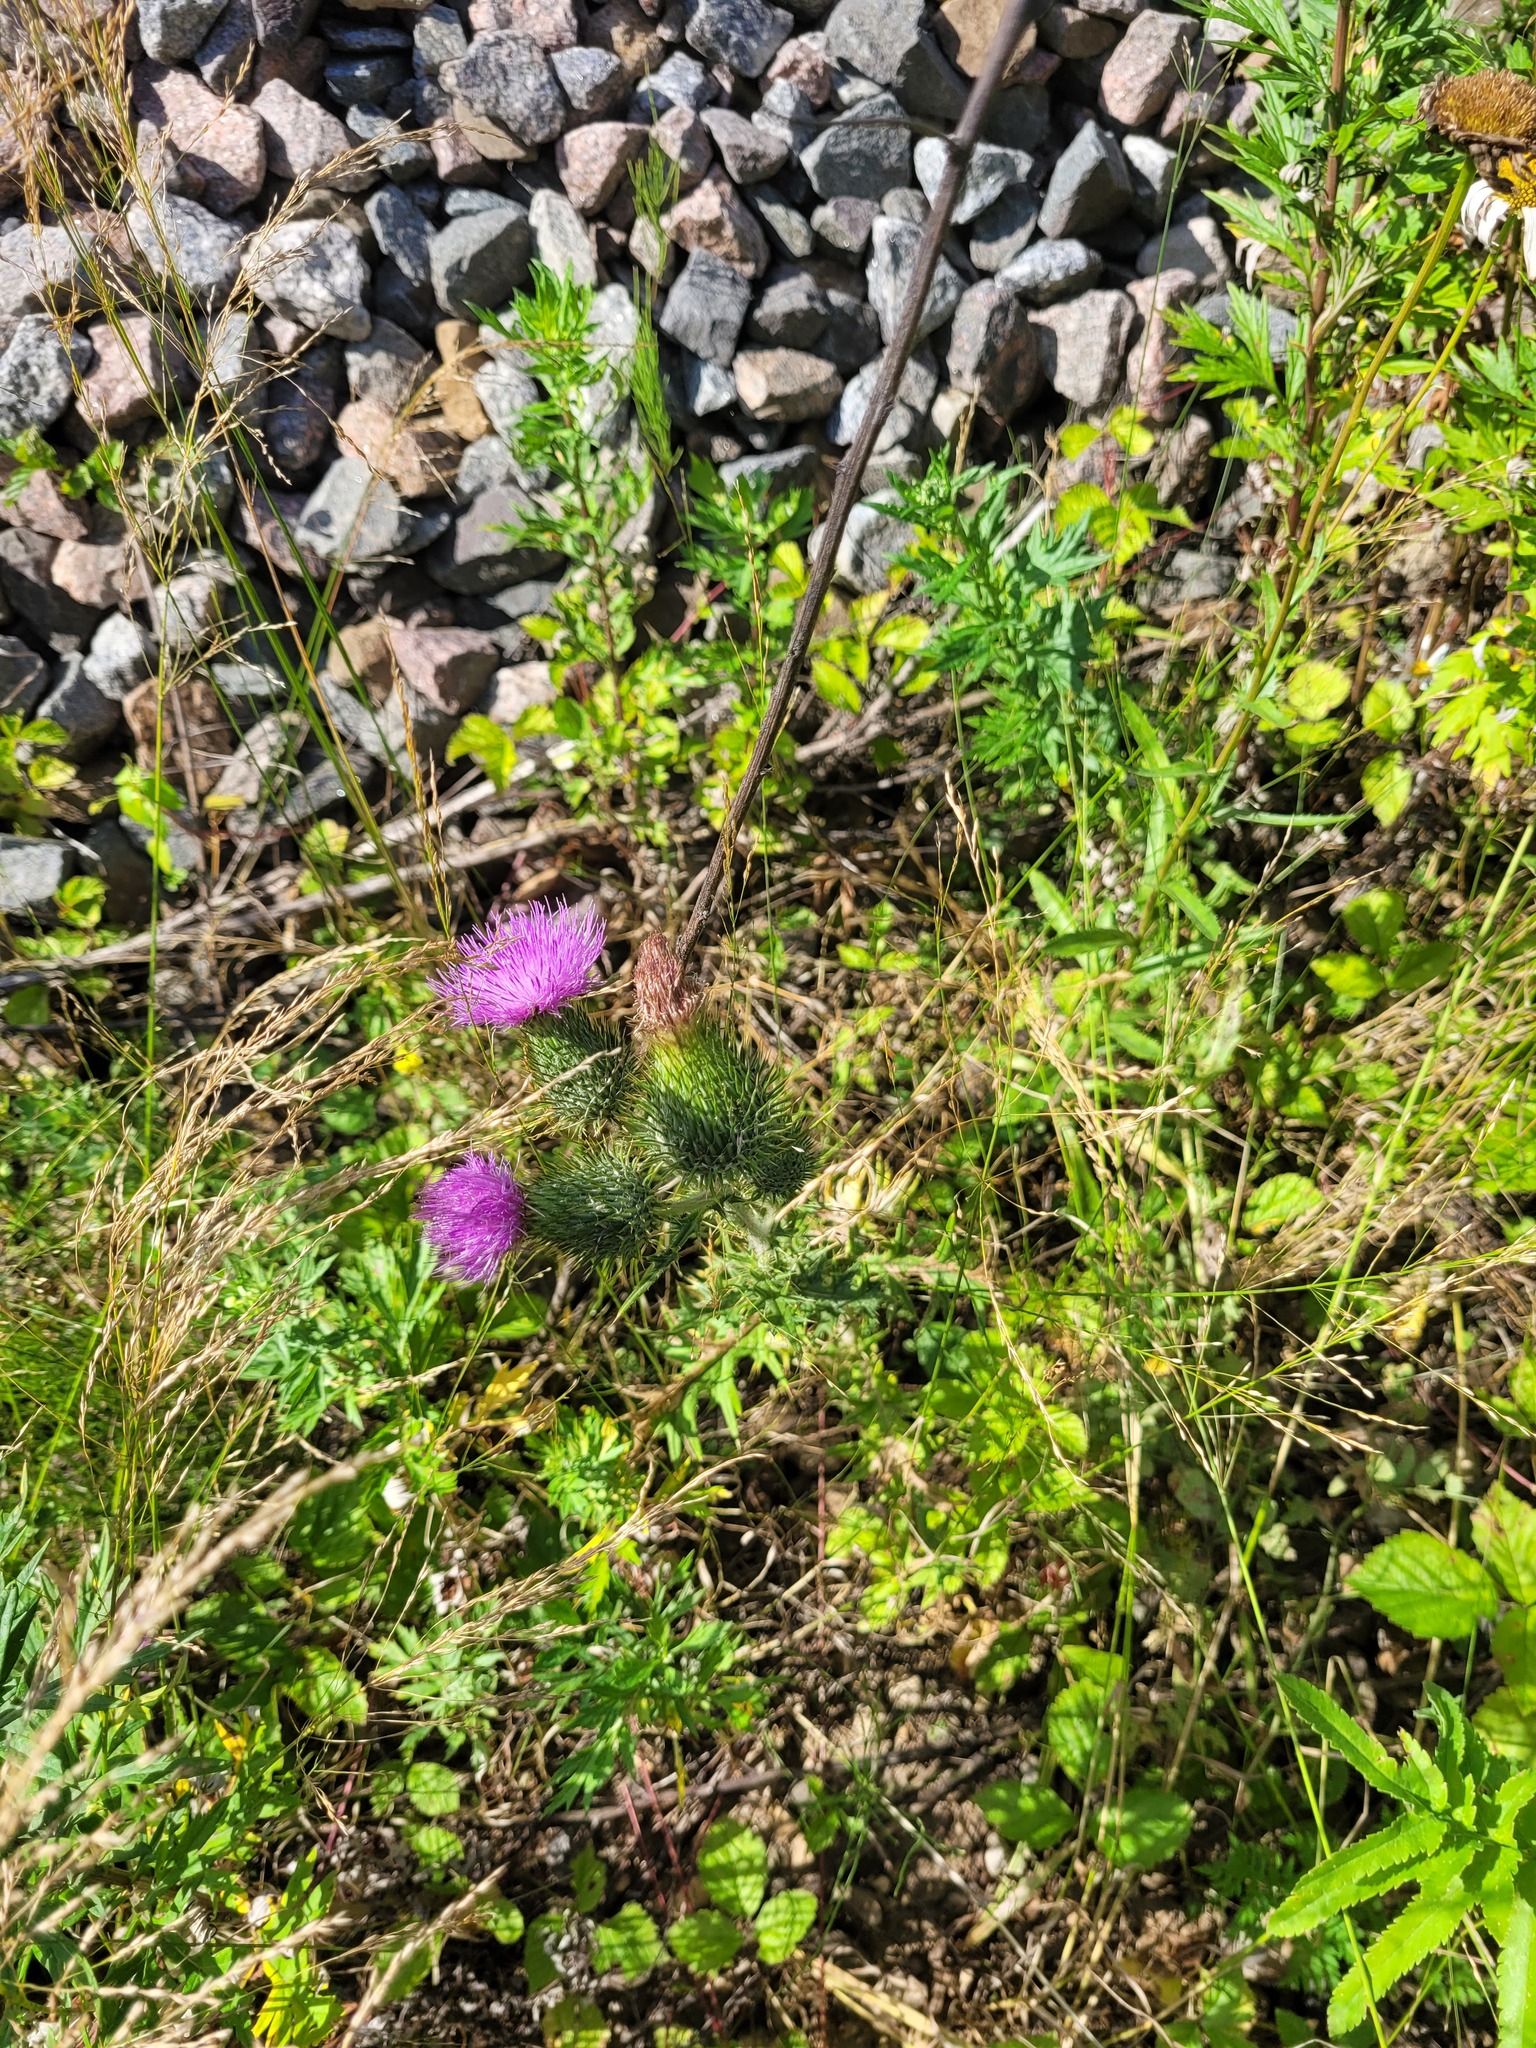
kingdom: Plantae
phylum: Tracheophyta
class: Magnoliopsida
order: Asterales
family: Asteraceae
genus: Cirsium
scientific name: Cirsium vulgare
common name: Bull thistle
